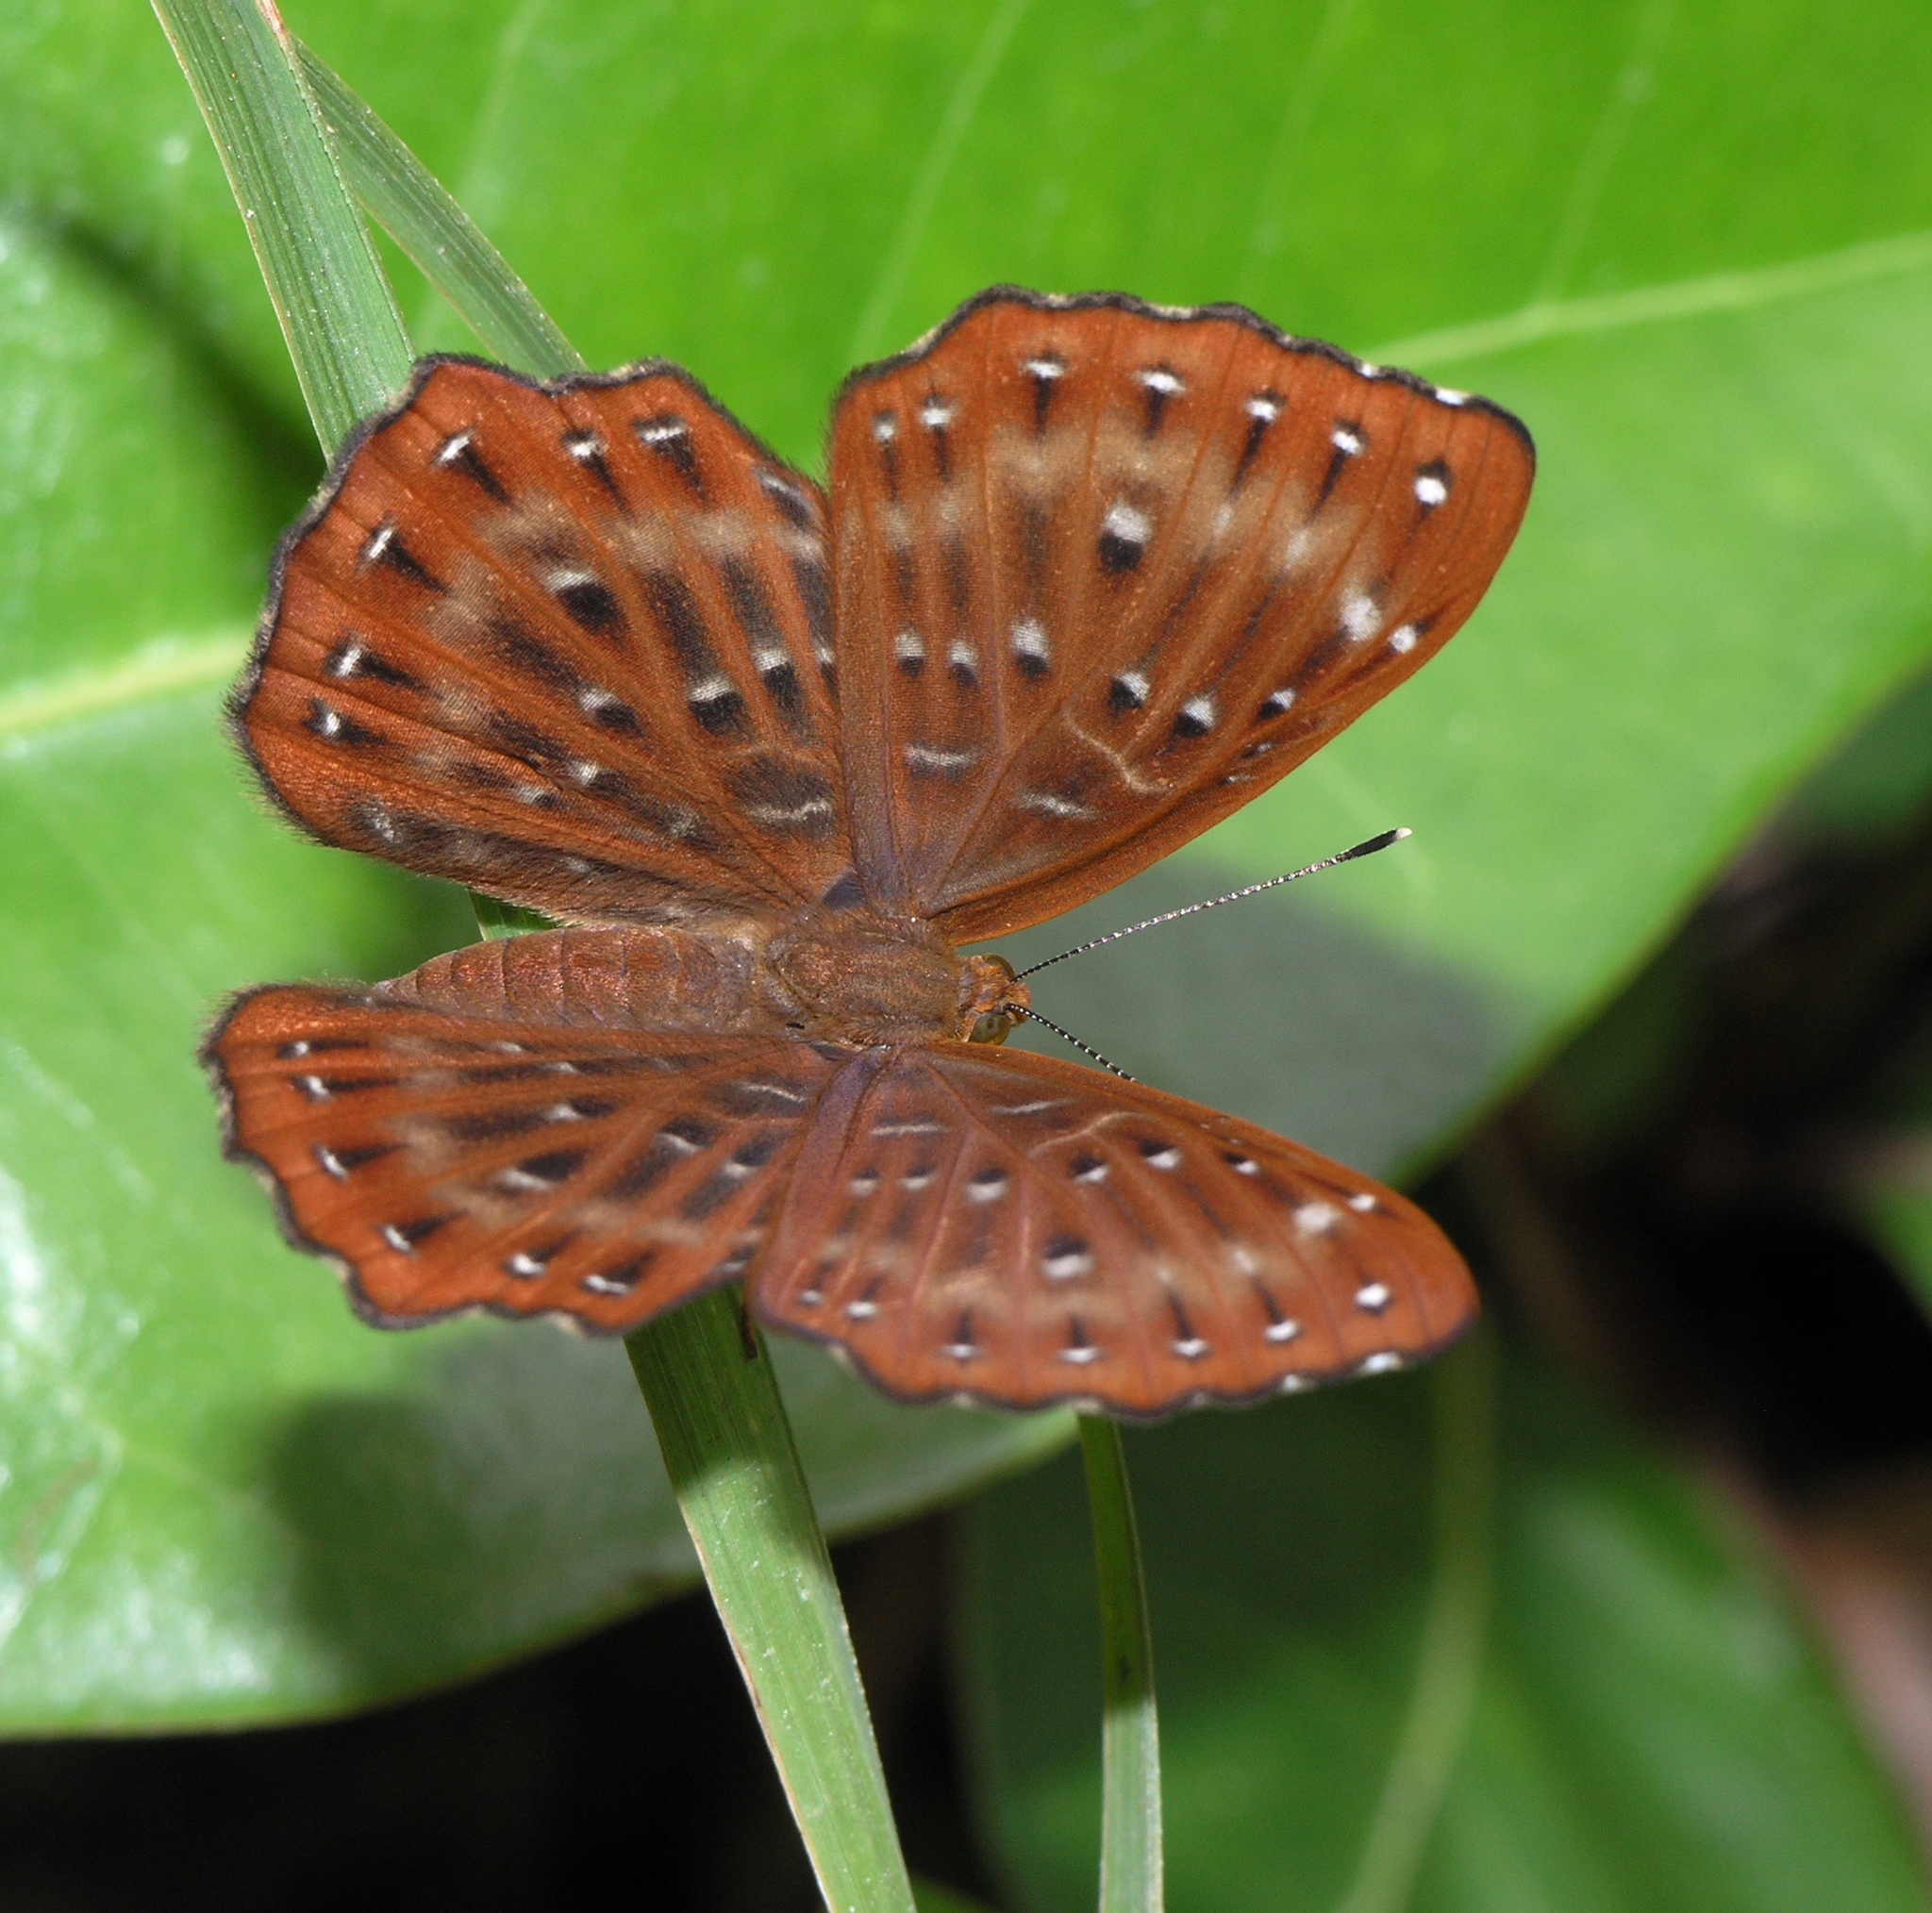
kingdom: Animalia
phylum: Arthropoda
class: Insecta
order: Lepidoptera
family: Riodinidae
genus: Zemeros
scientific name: Zemeros flegyas
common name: Punchinello
